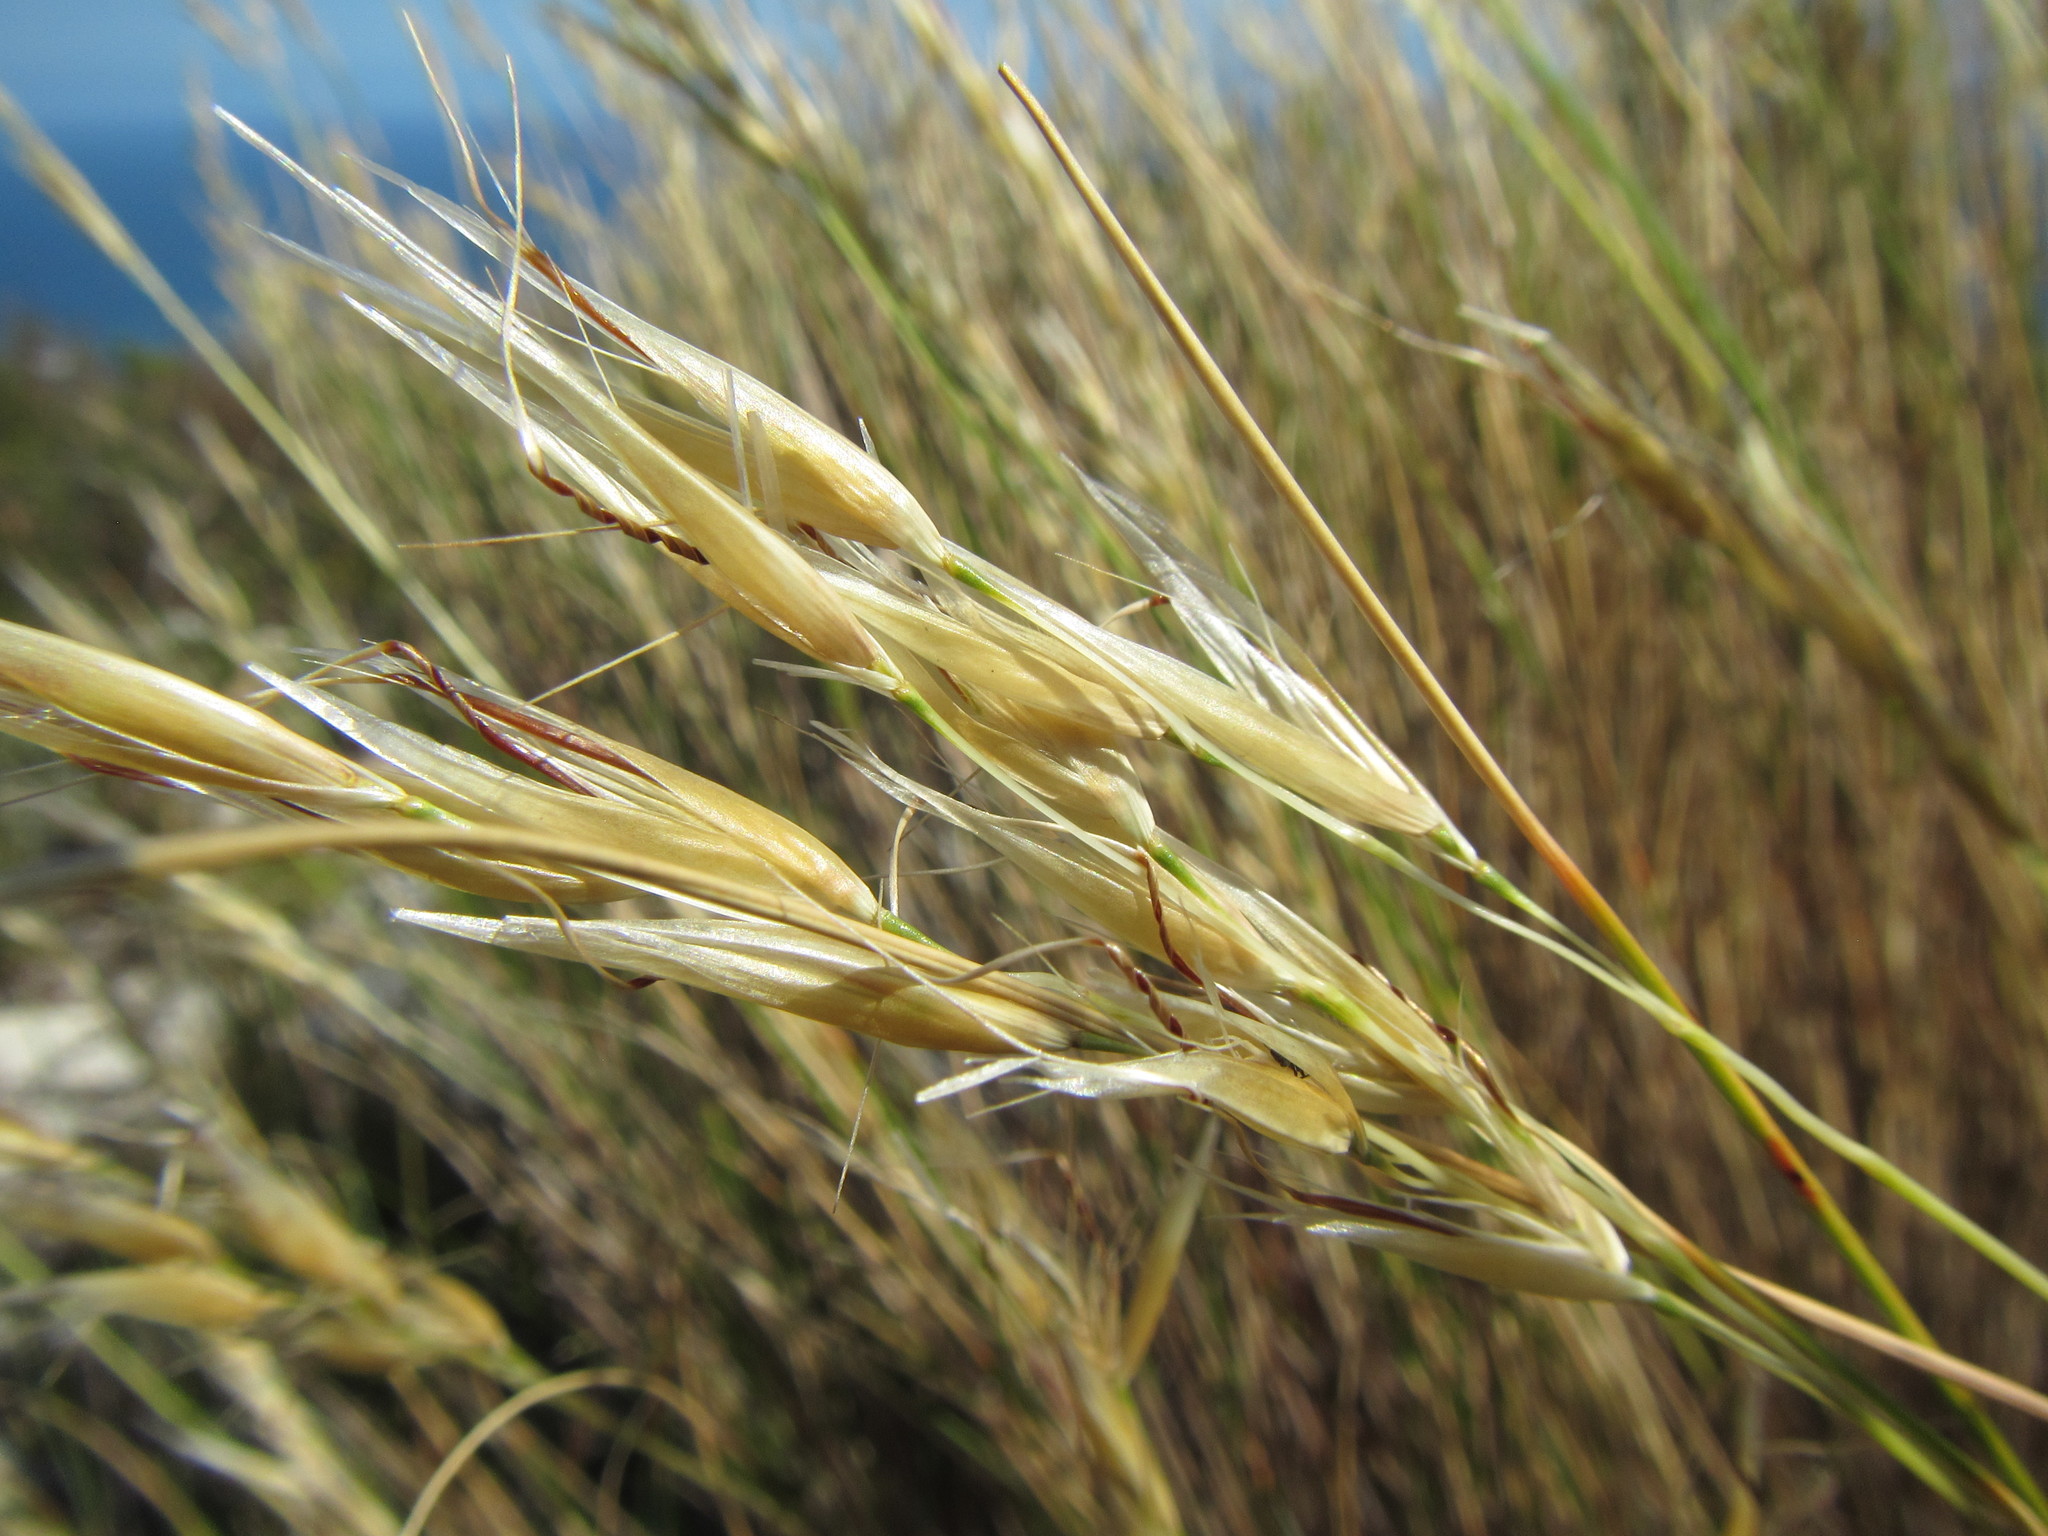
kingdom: Plantae
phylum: Tracheophyta
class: Liliopsida
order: Poales
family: Poaceae
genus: Pentameris
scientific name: Pentameris macrocalycina
